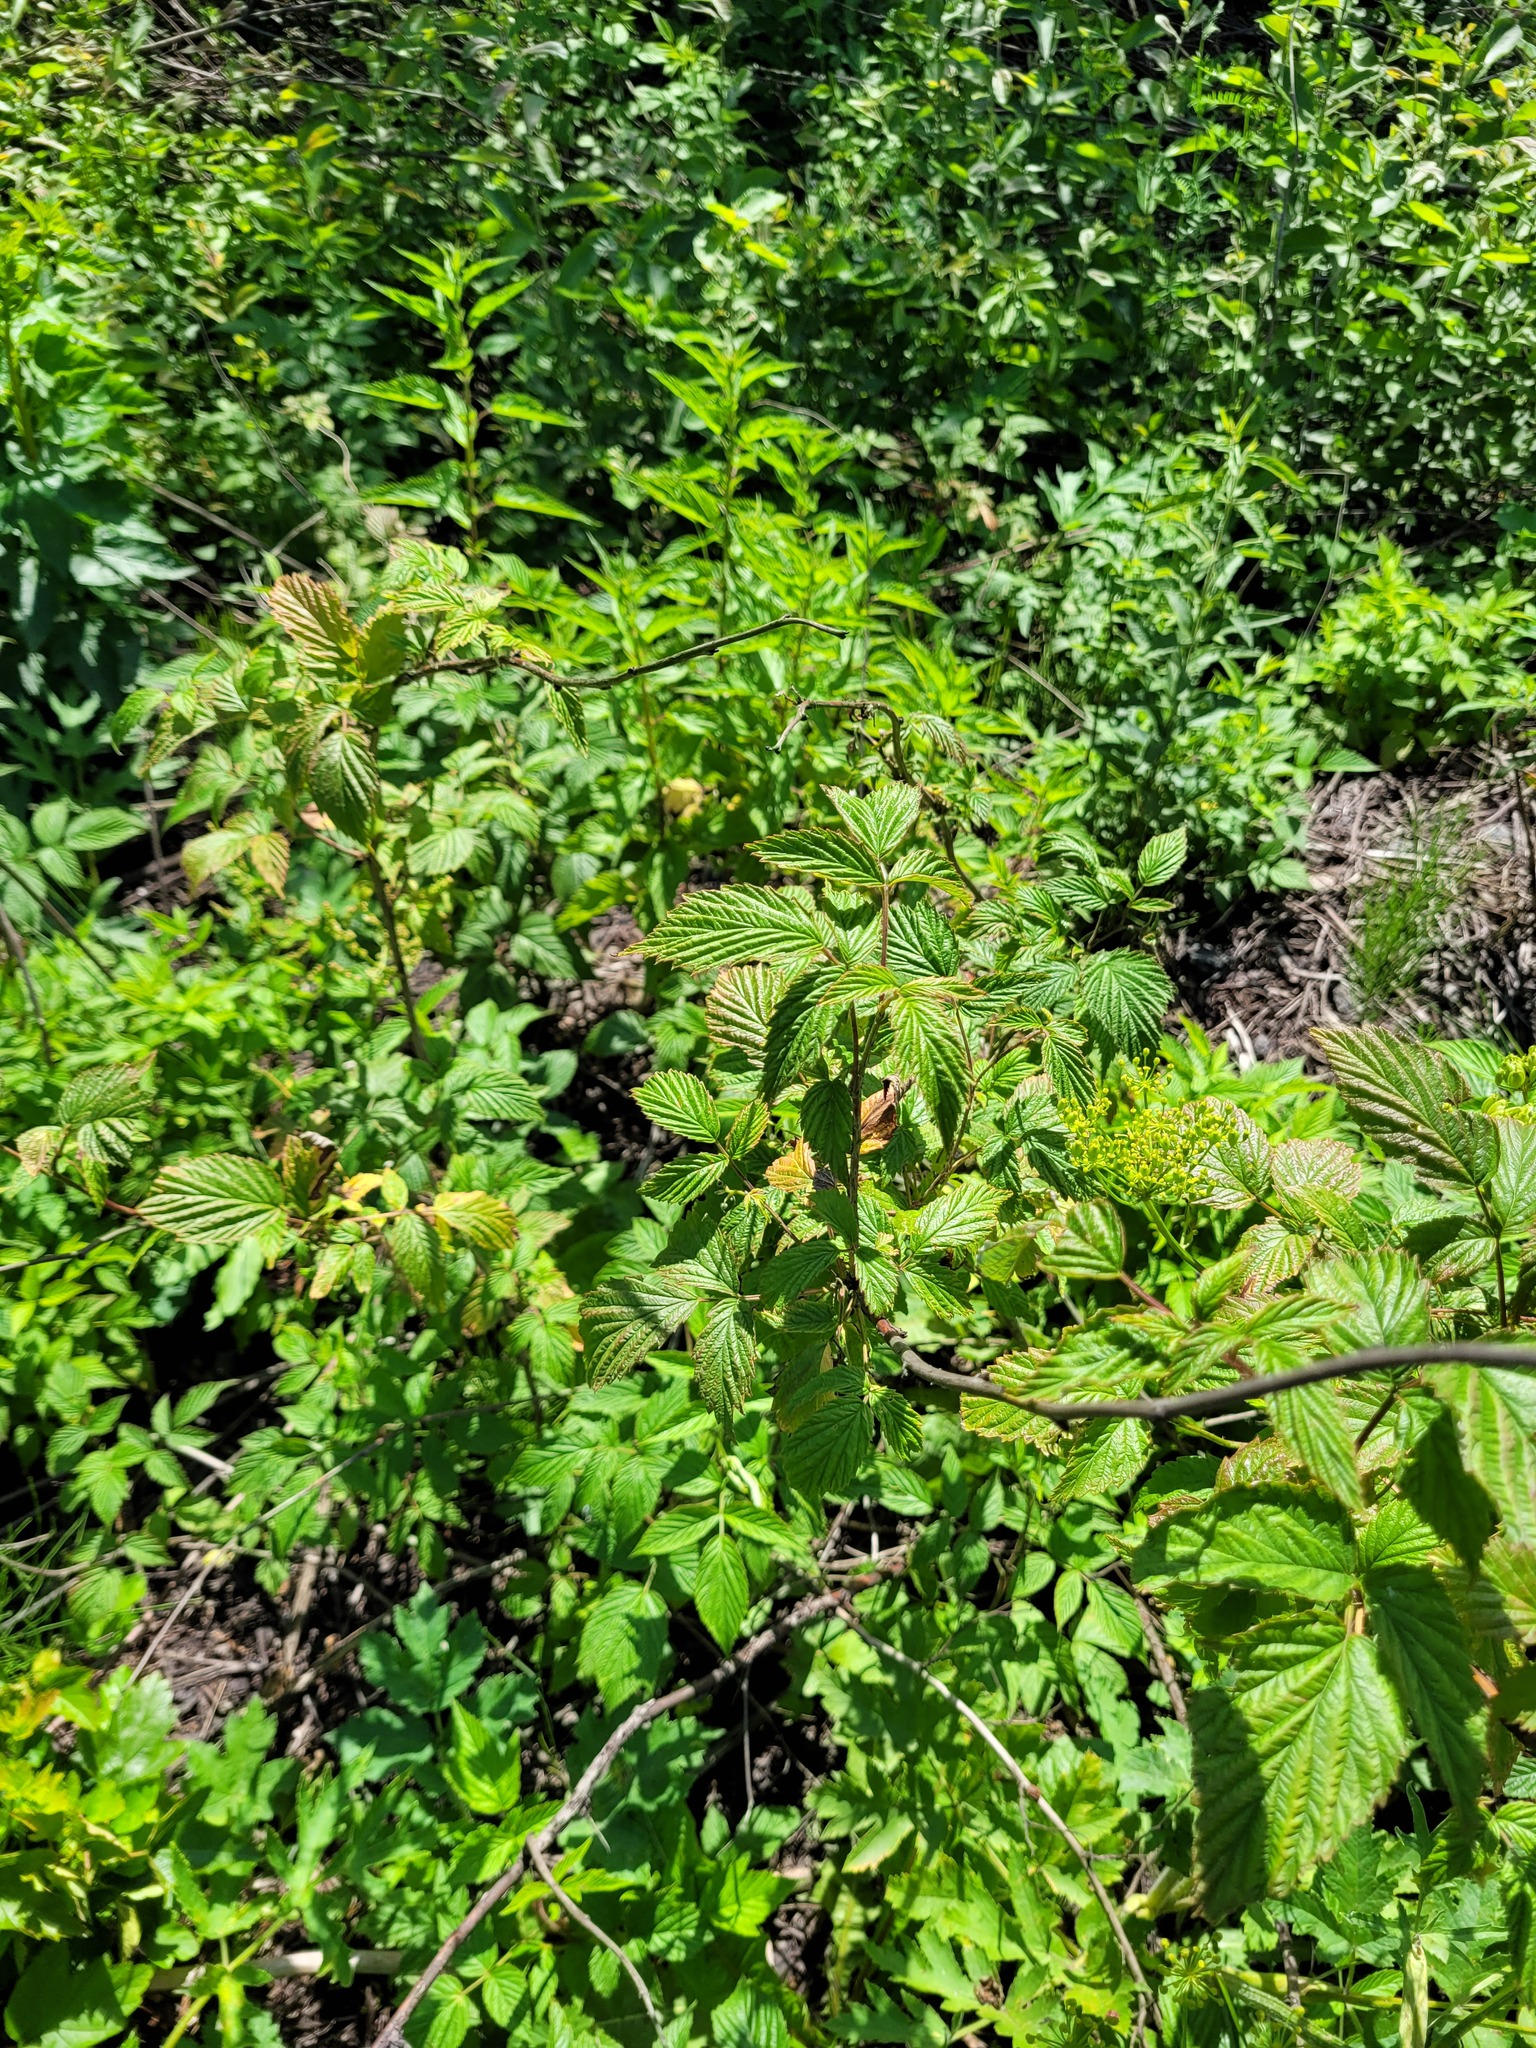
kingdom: Plantae
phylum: Tracheophyta
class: Magnoliopsida
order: Rosales
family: Rosaceae
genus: Rubus
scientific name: Rubus idaeus
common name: Raspberry
